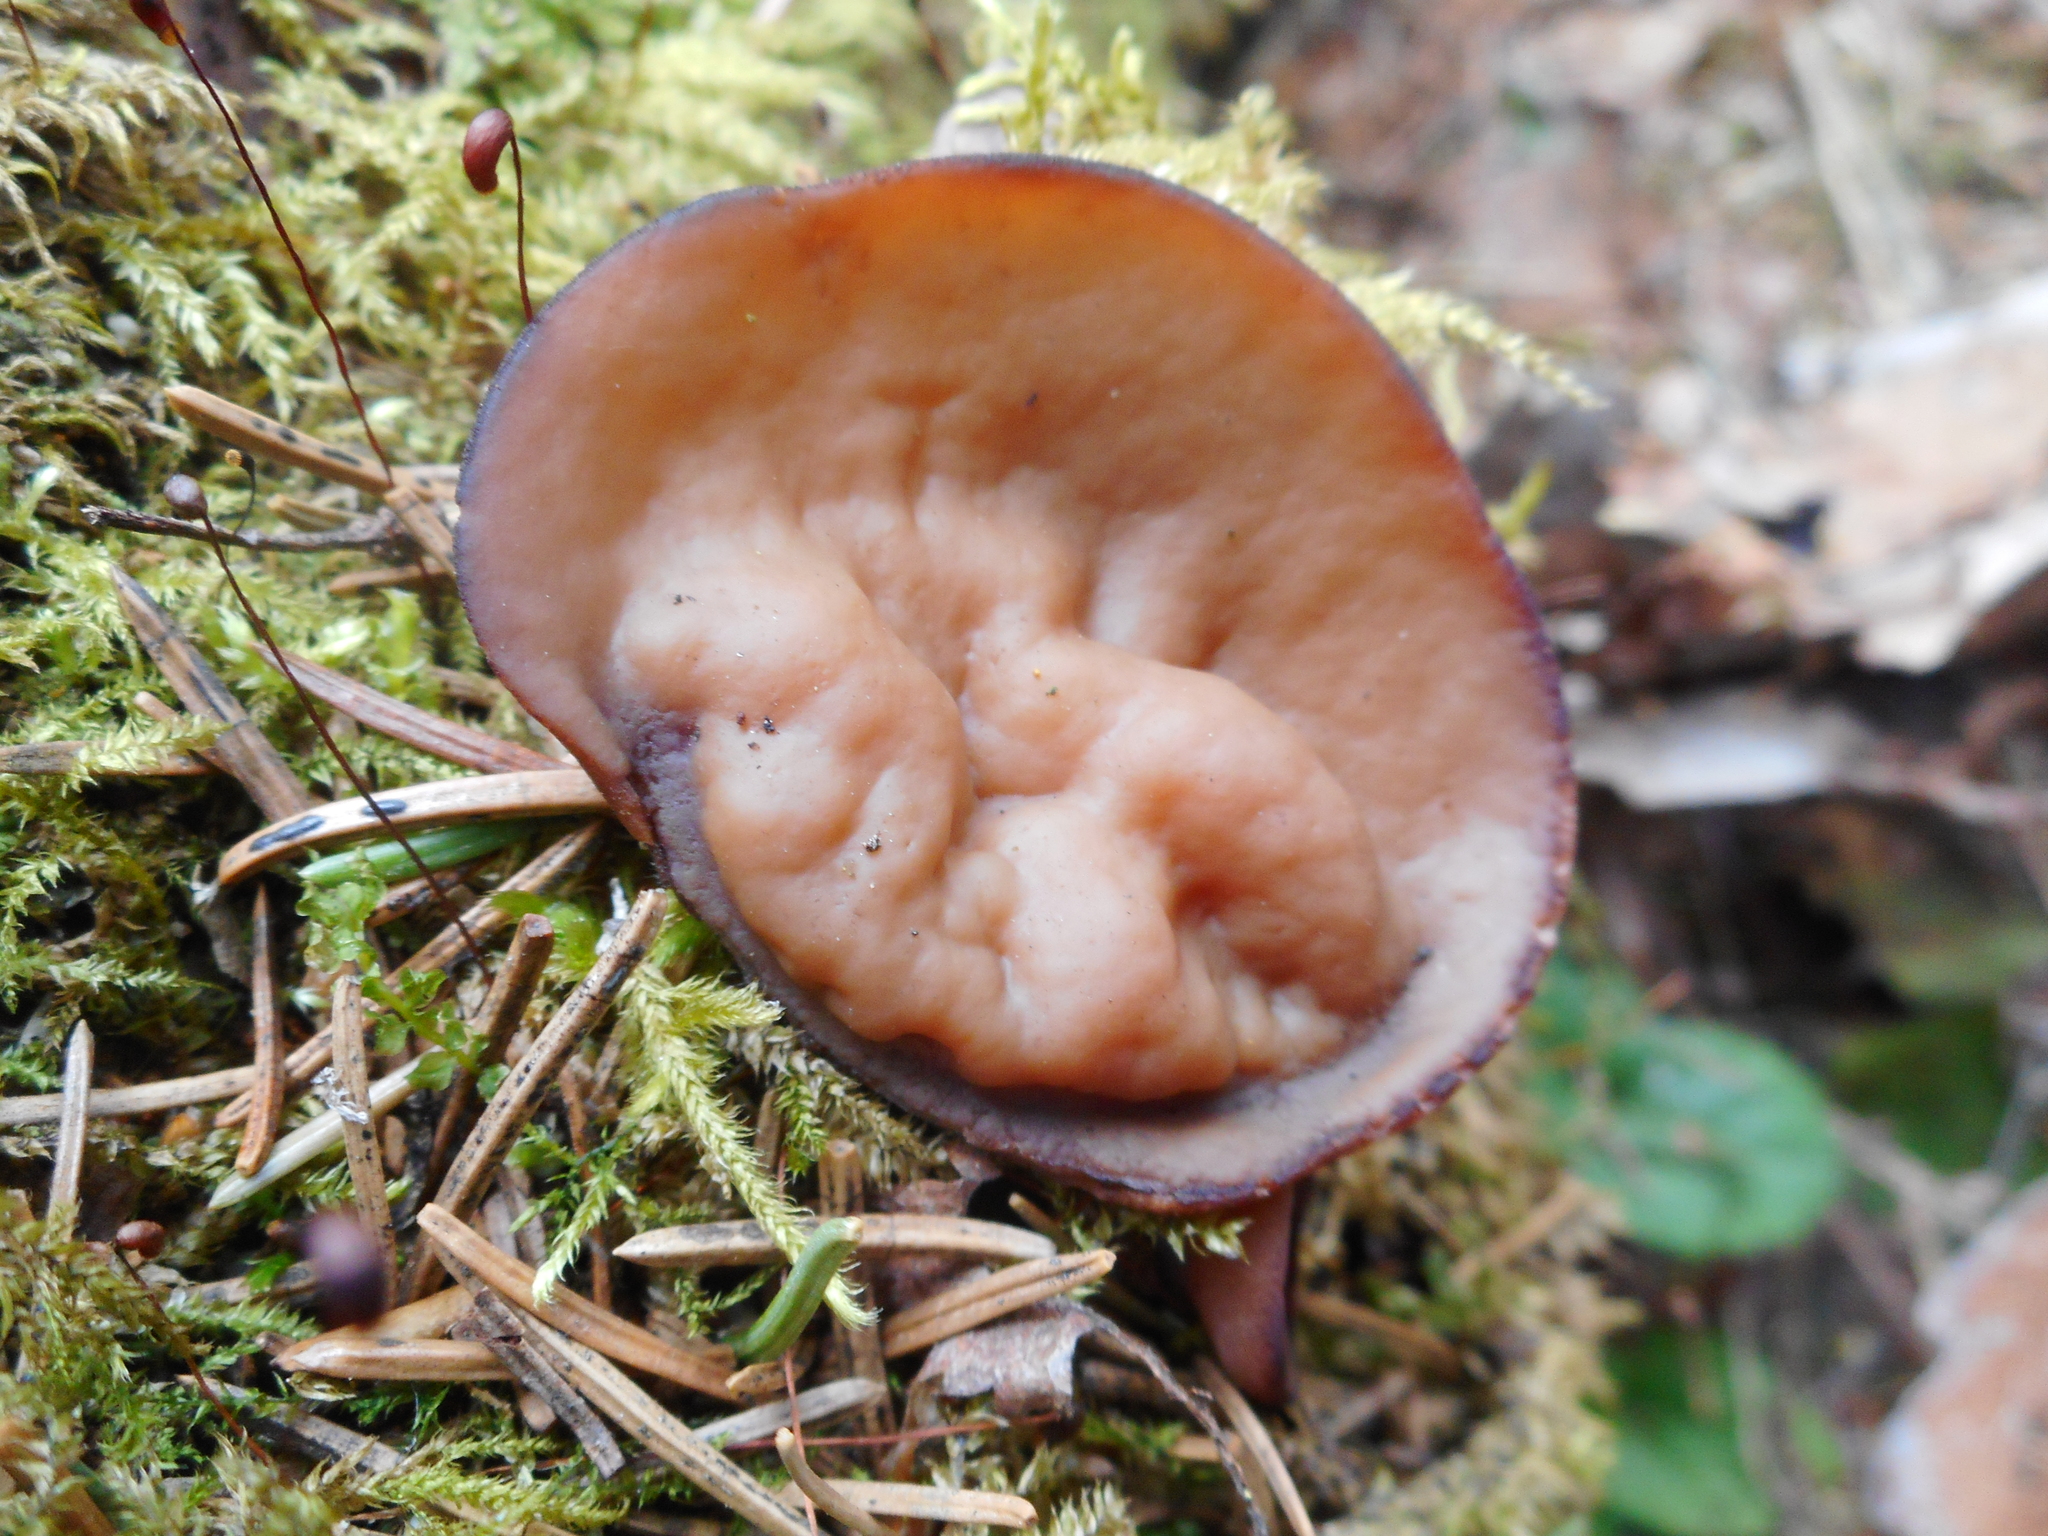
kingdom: Fungi
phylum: Ascomycota
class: Pezizomycetes
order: Pezizales
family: Discinaceae
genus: Discina
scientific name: Discina ancilis
